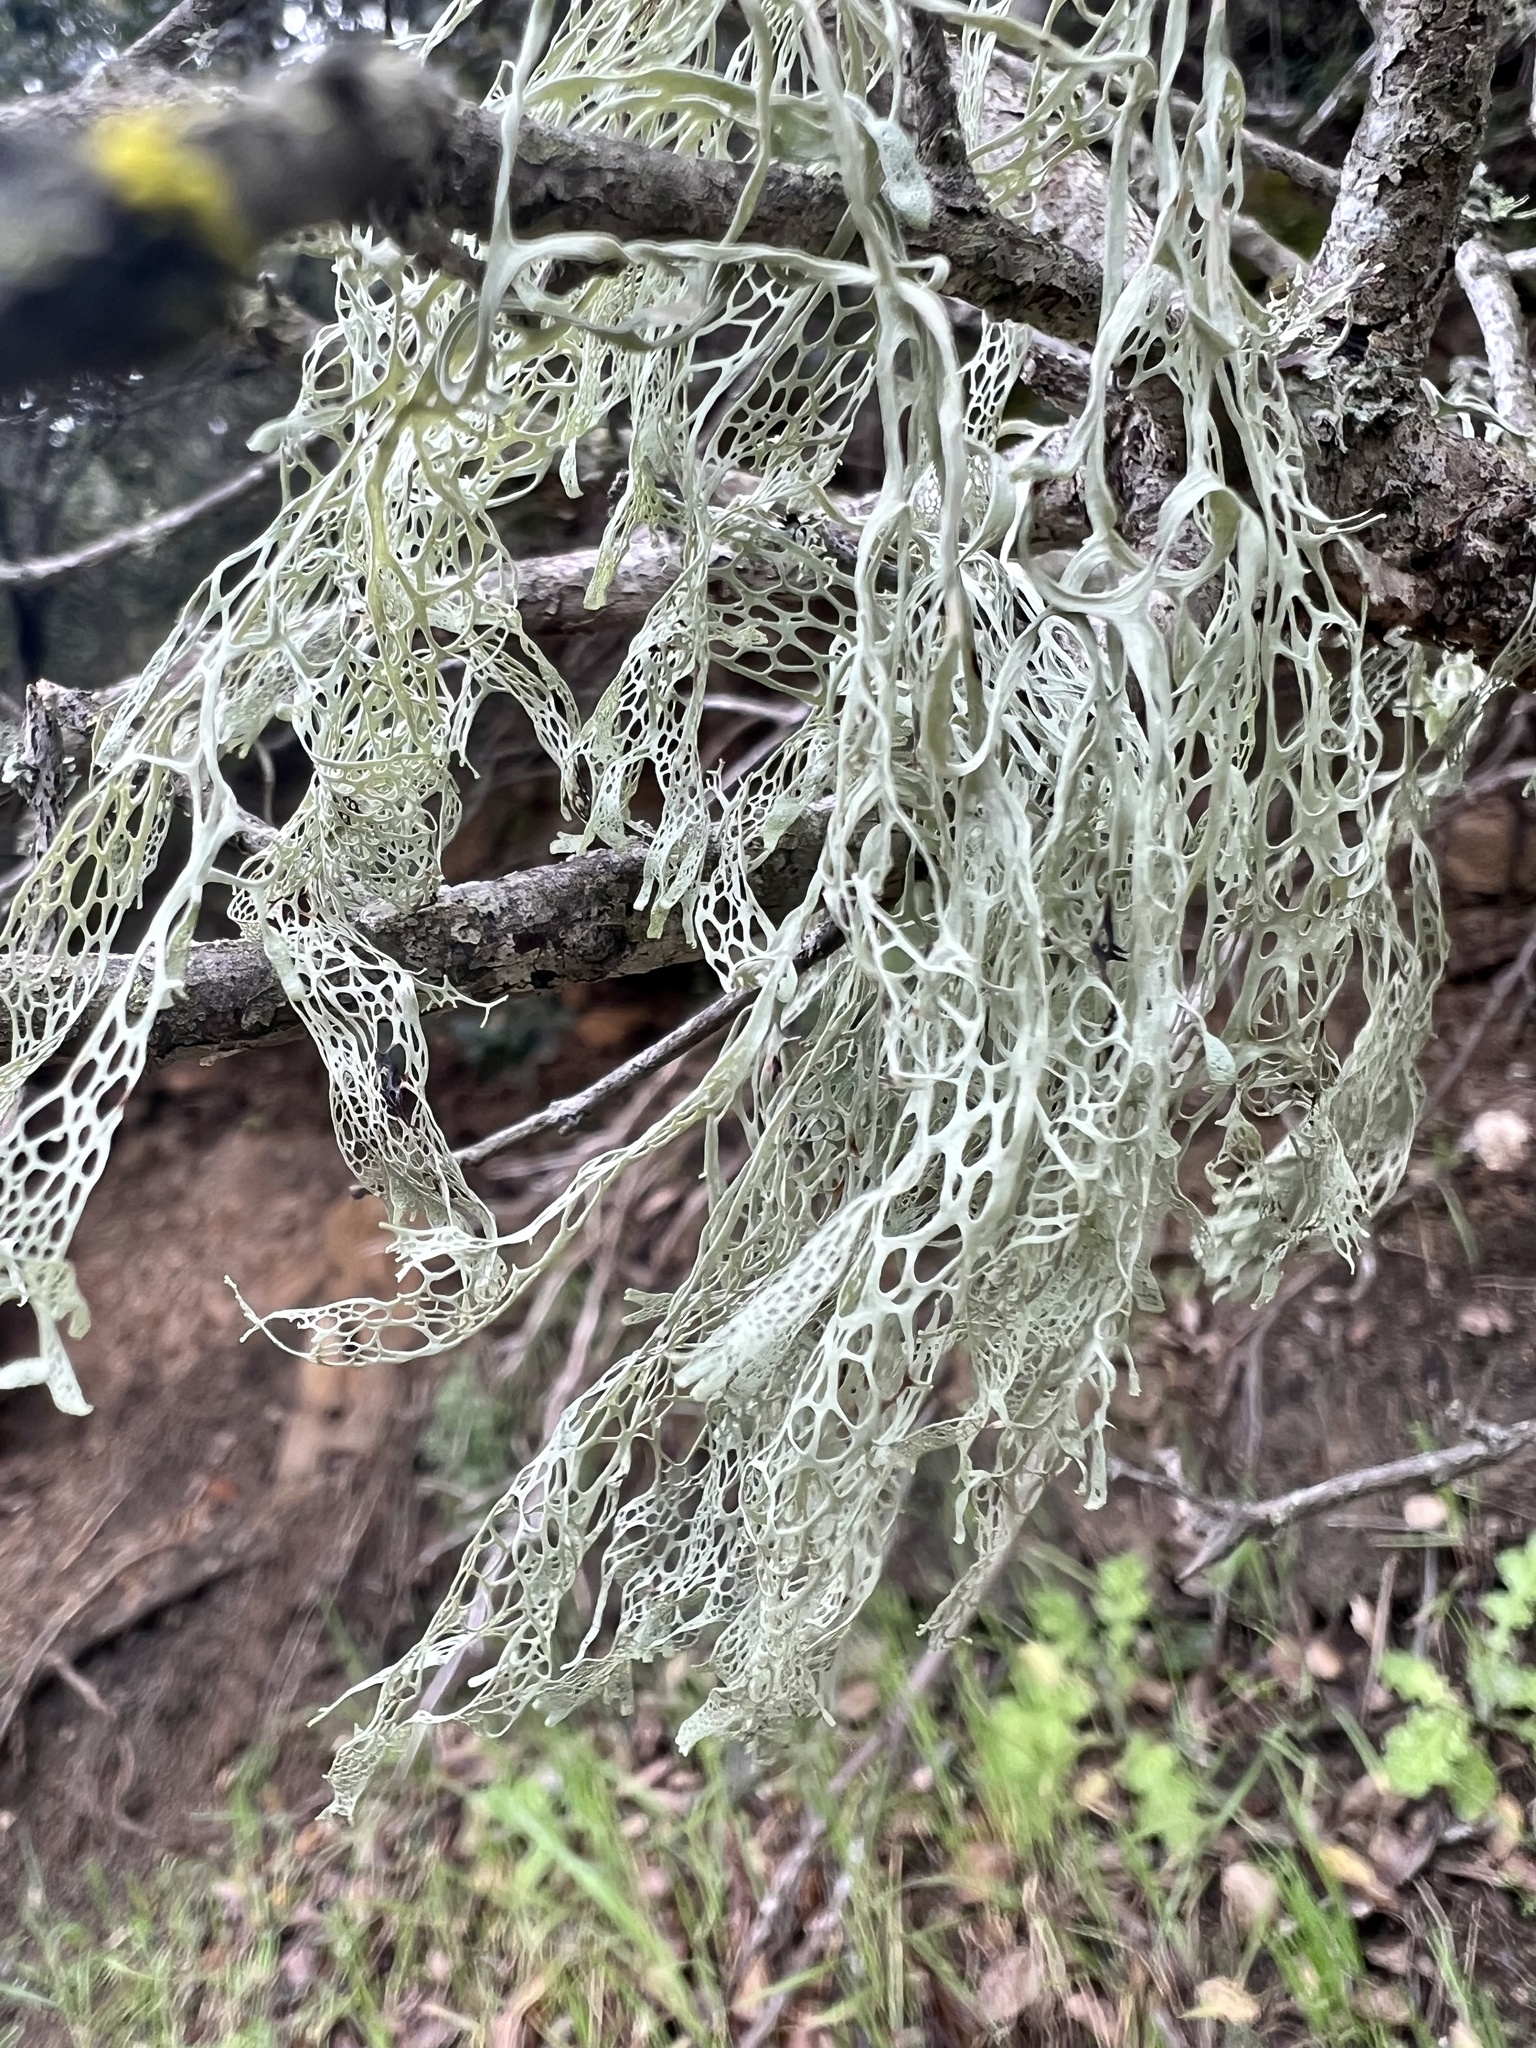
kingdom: Fungi
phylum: Ascomycota
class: Lecanoromycetes
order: Lecanorales
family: Ramalinaceae
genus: Ramalina
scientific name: Ramalina menziesii
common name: Lace lichen
